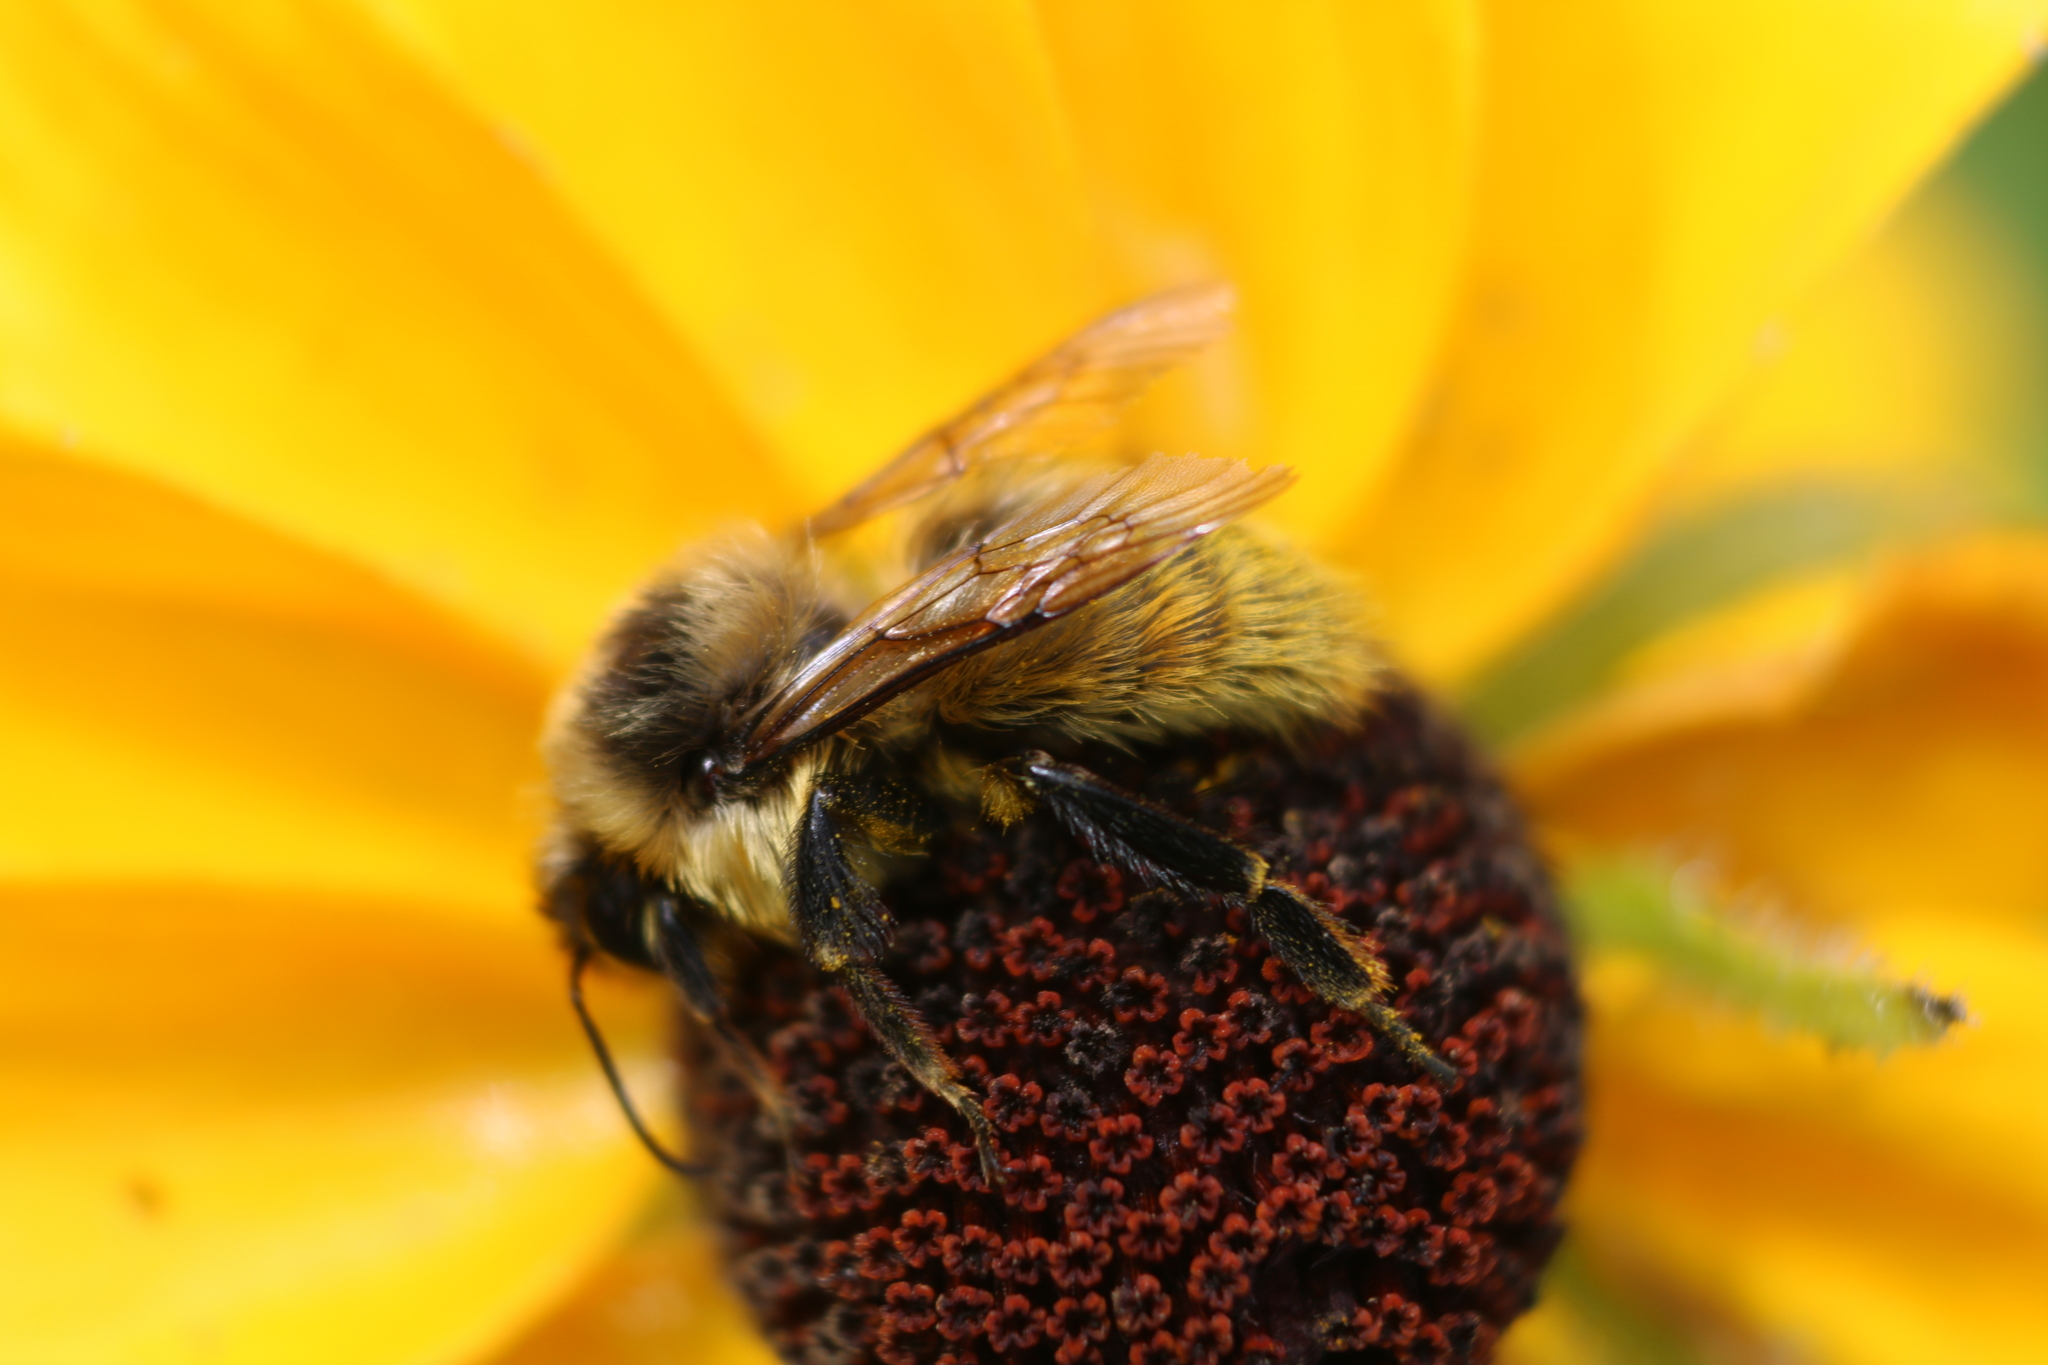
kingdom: Animalia
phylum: Arthropoda
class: Insecta
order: Hymenoptera
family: Apidae
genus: Bombus
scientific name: Bombus rufocinctus
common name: Red-belted bumble bee
